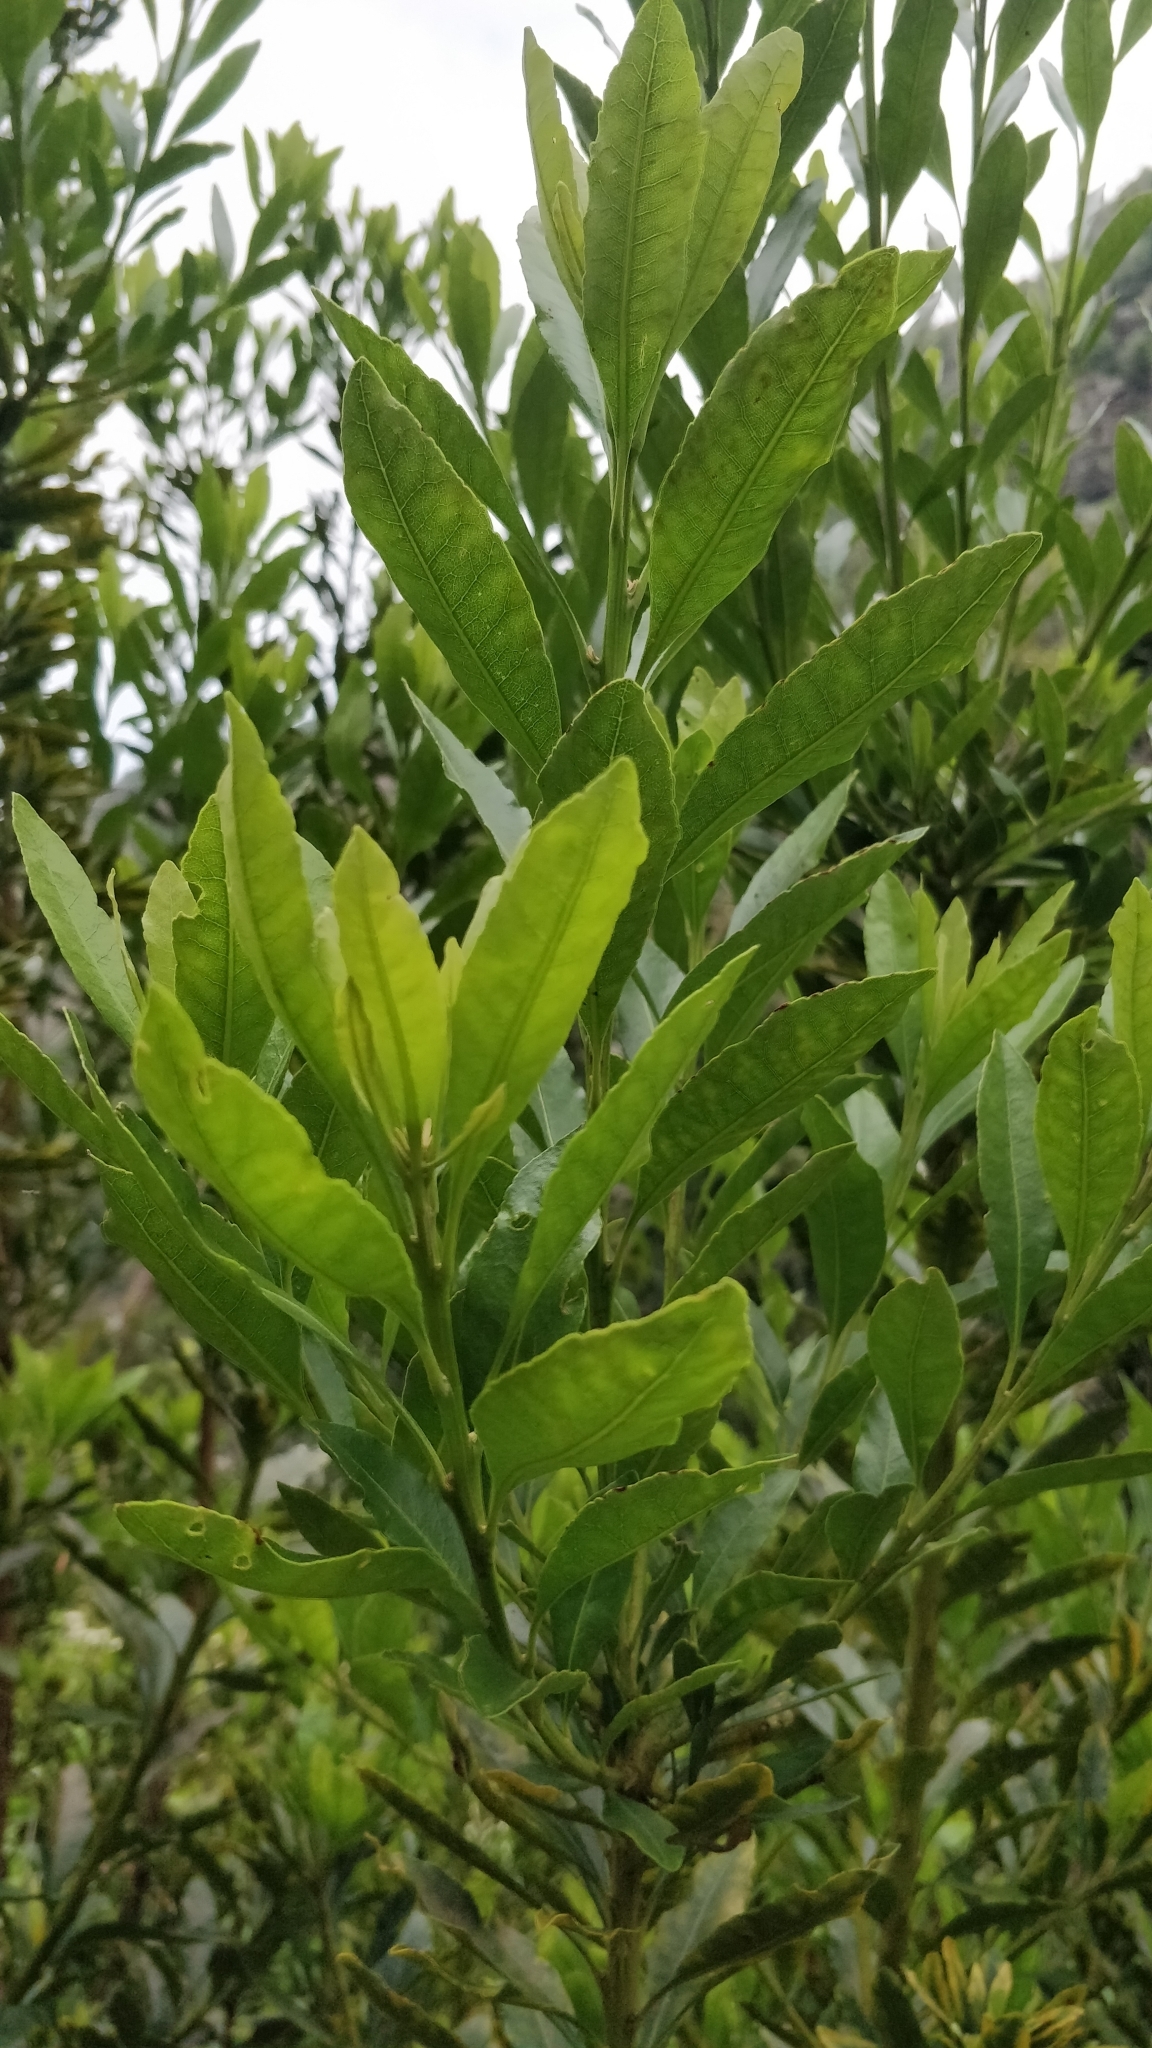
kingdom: Plantae
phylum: Tracheophyta
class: Magnoliopsida
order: Fagales
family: Myricaceae
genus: Morella
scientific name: Morella faya
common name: Firetree
